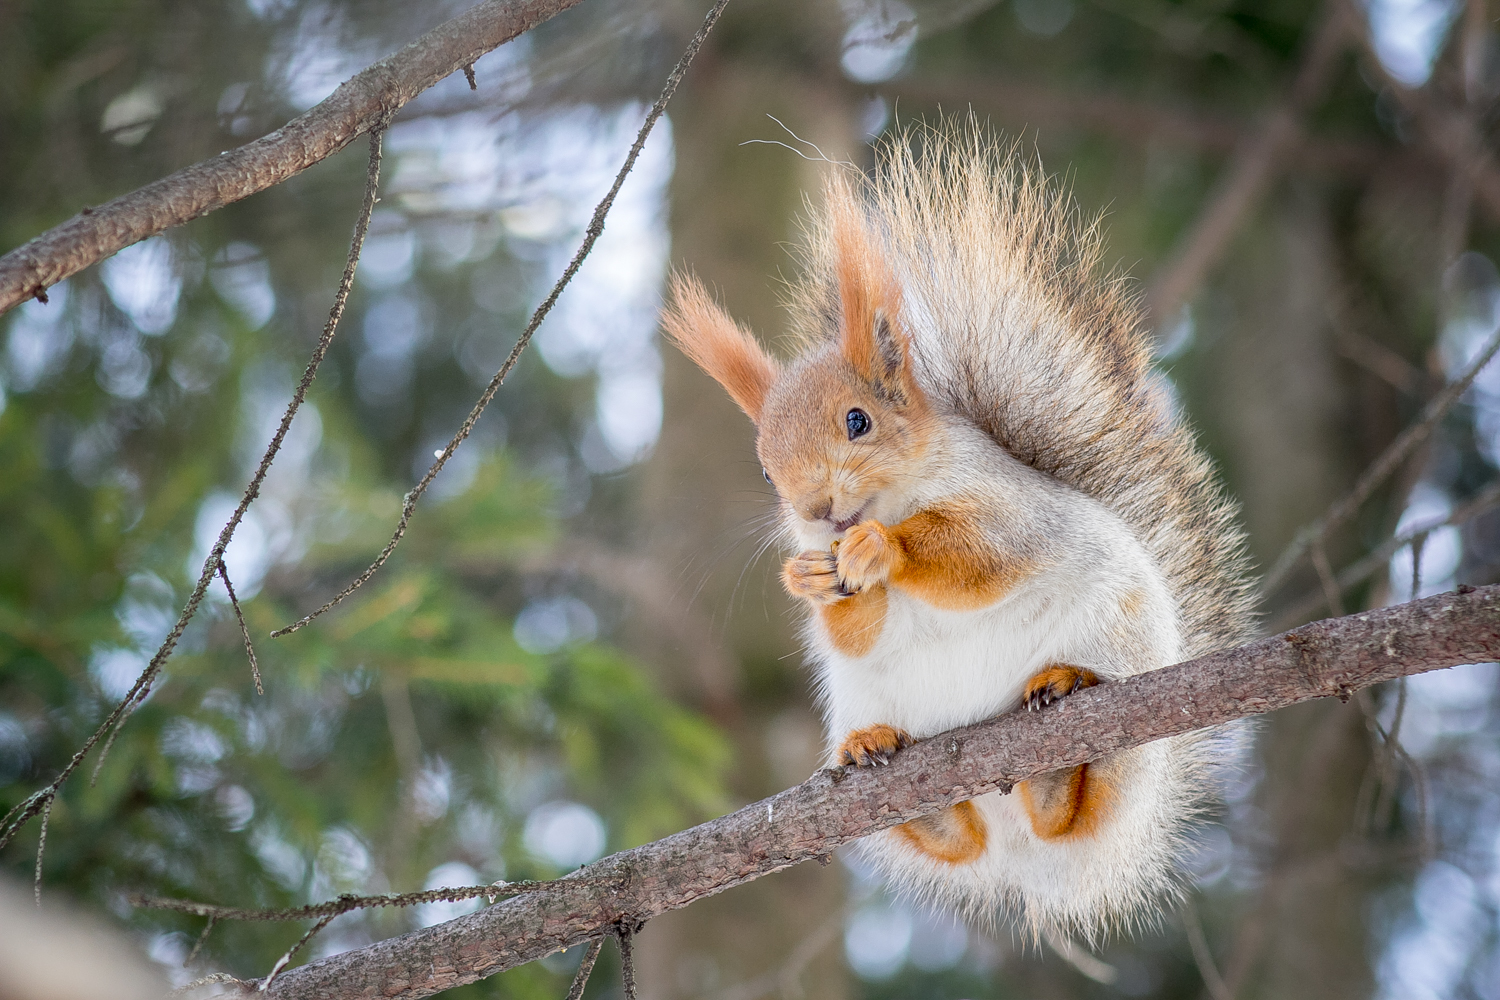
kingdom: Animalia
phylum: Chordata
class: Mammalia
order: Rodentia
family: Sciuridae
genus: Sciurus
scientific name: Sciurus vulgaris
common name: Eurasian red squirrel
